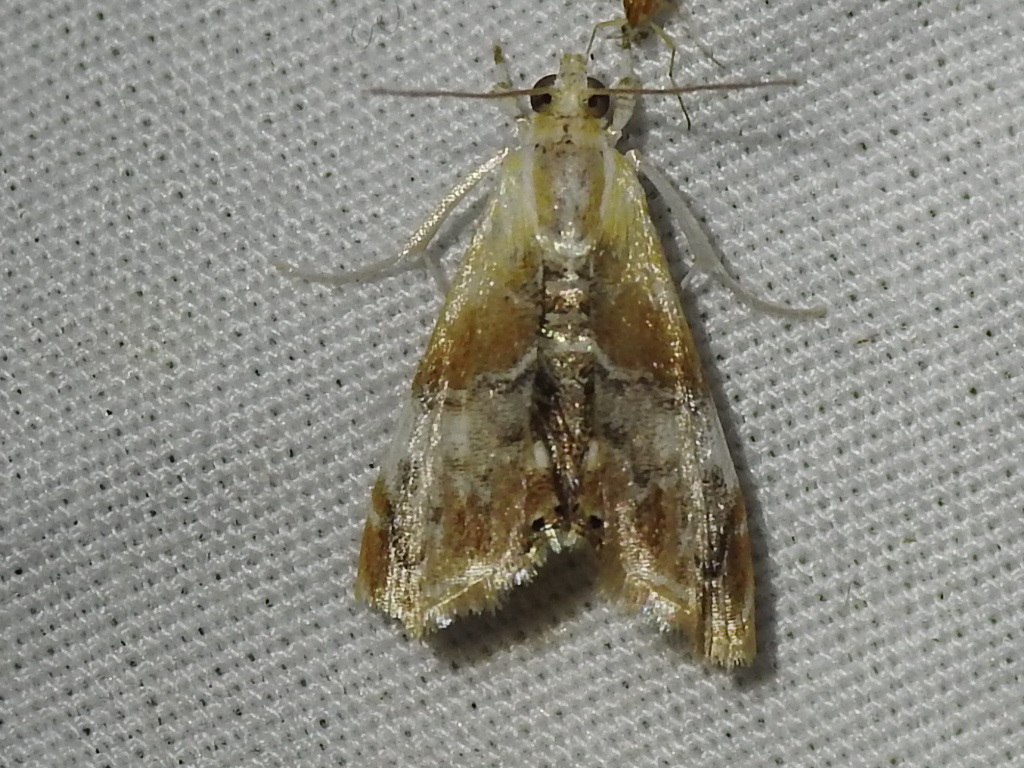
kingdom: Animalia
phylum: Arthropoda
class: Insecta
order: Lepidoptera
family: Crambidae
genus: Dicymolomia
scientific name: Dicymolomia julianalis
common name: Julia's dicymolomia moth
